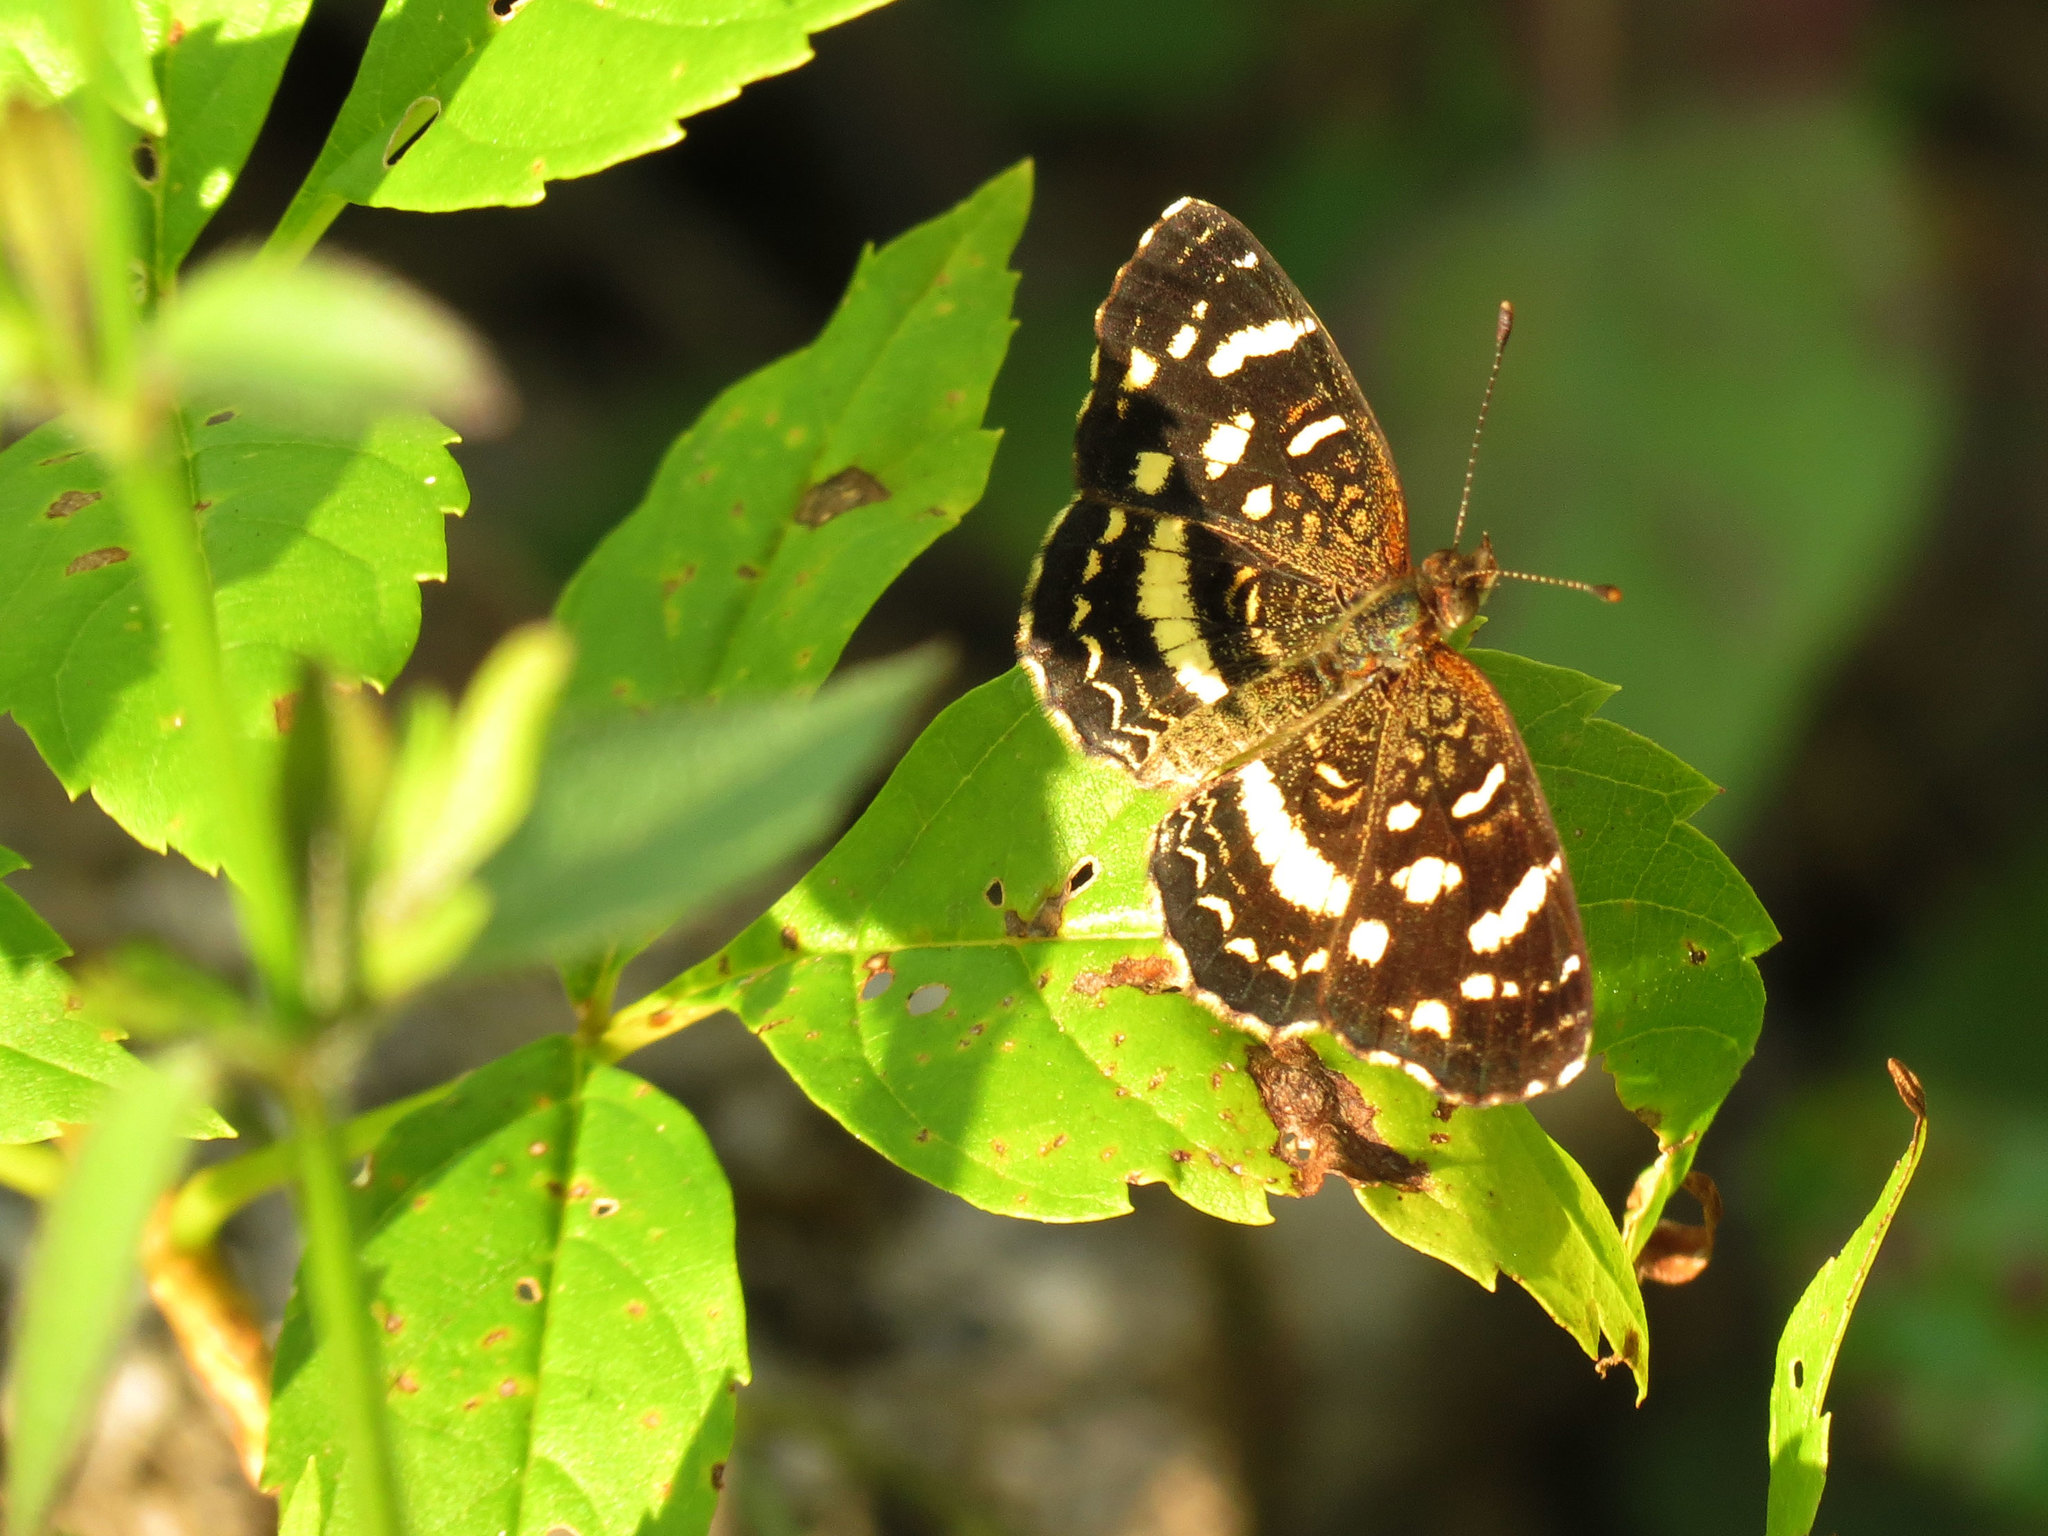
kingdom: Animalia
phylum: Arthropoda
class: Insecta
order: Lepidoptera
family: Nymphalidae
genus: Anthanassa
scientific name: Anthanassa tulcis
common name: Pale-banded crescent
